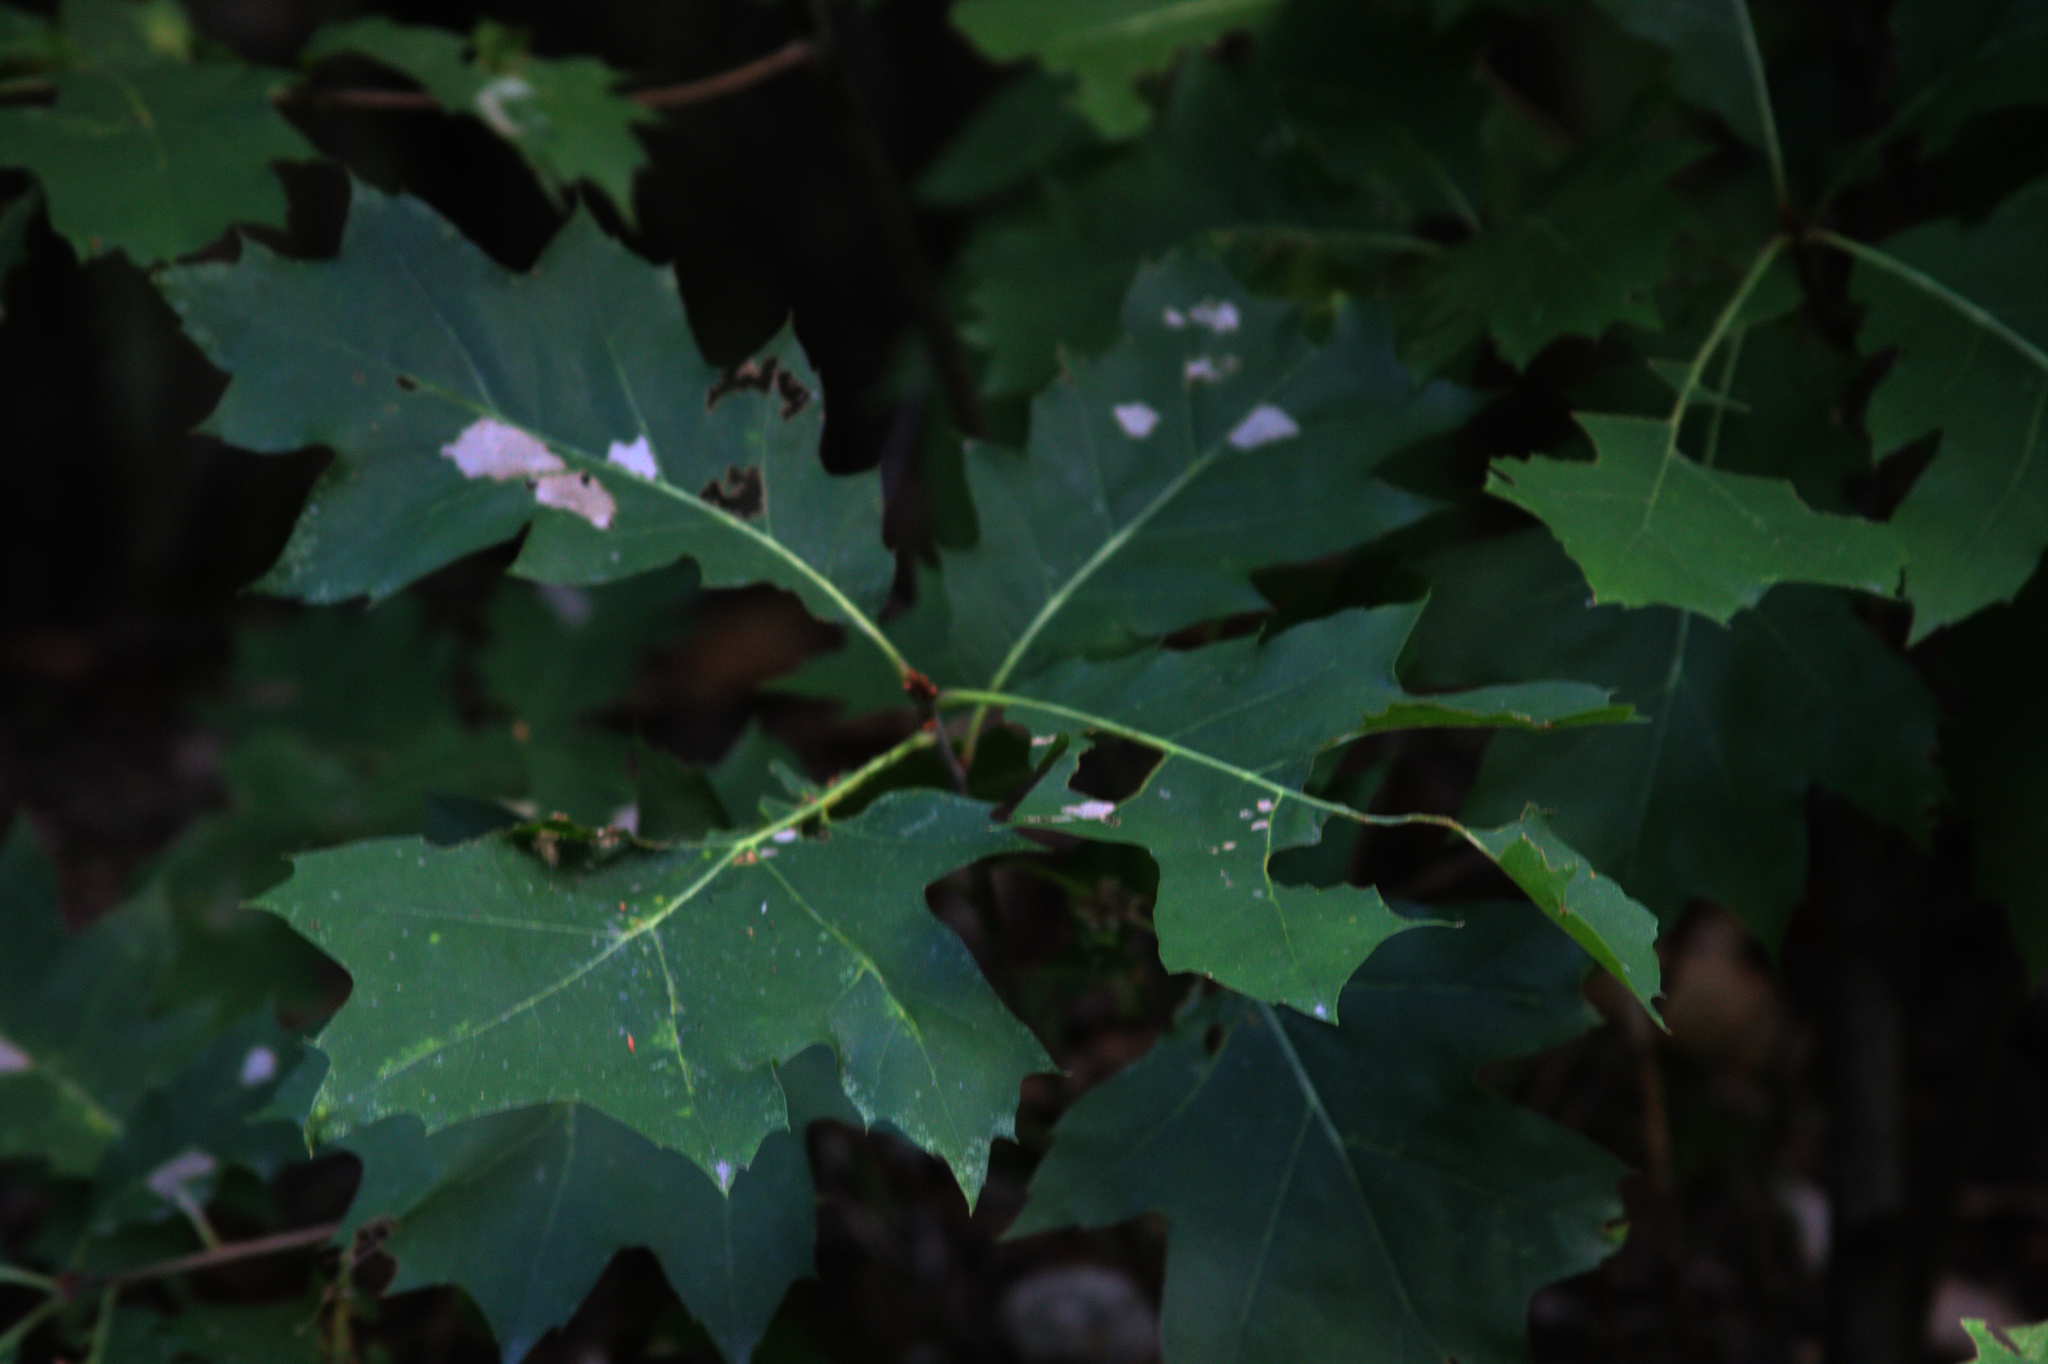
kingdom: Plantae
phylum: Tracheophyta
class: Magnoliopsida
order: Fagales
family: Fagaceae
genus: Quercus
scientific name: Quercus rubra
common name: Red oak
